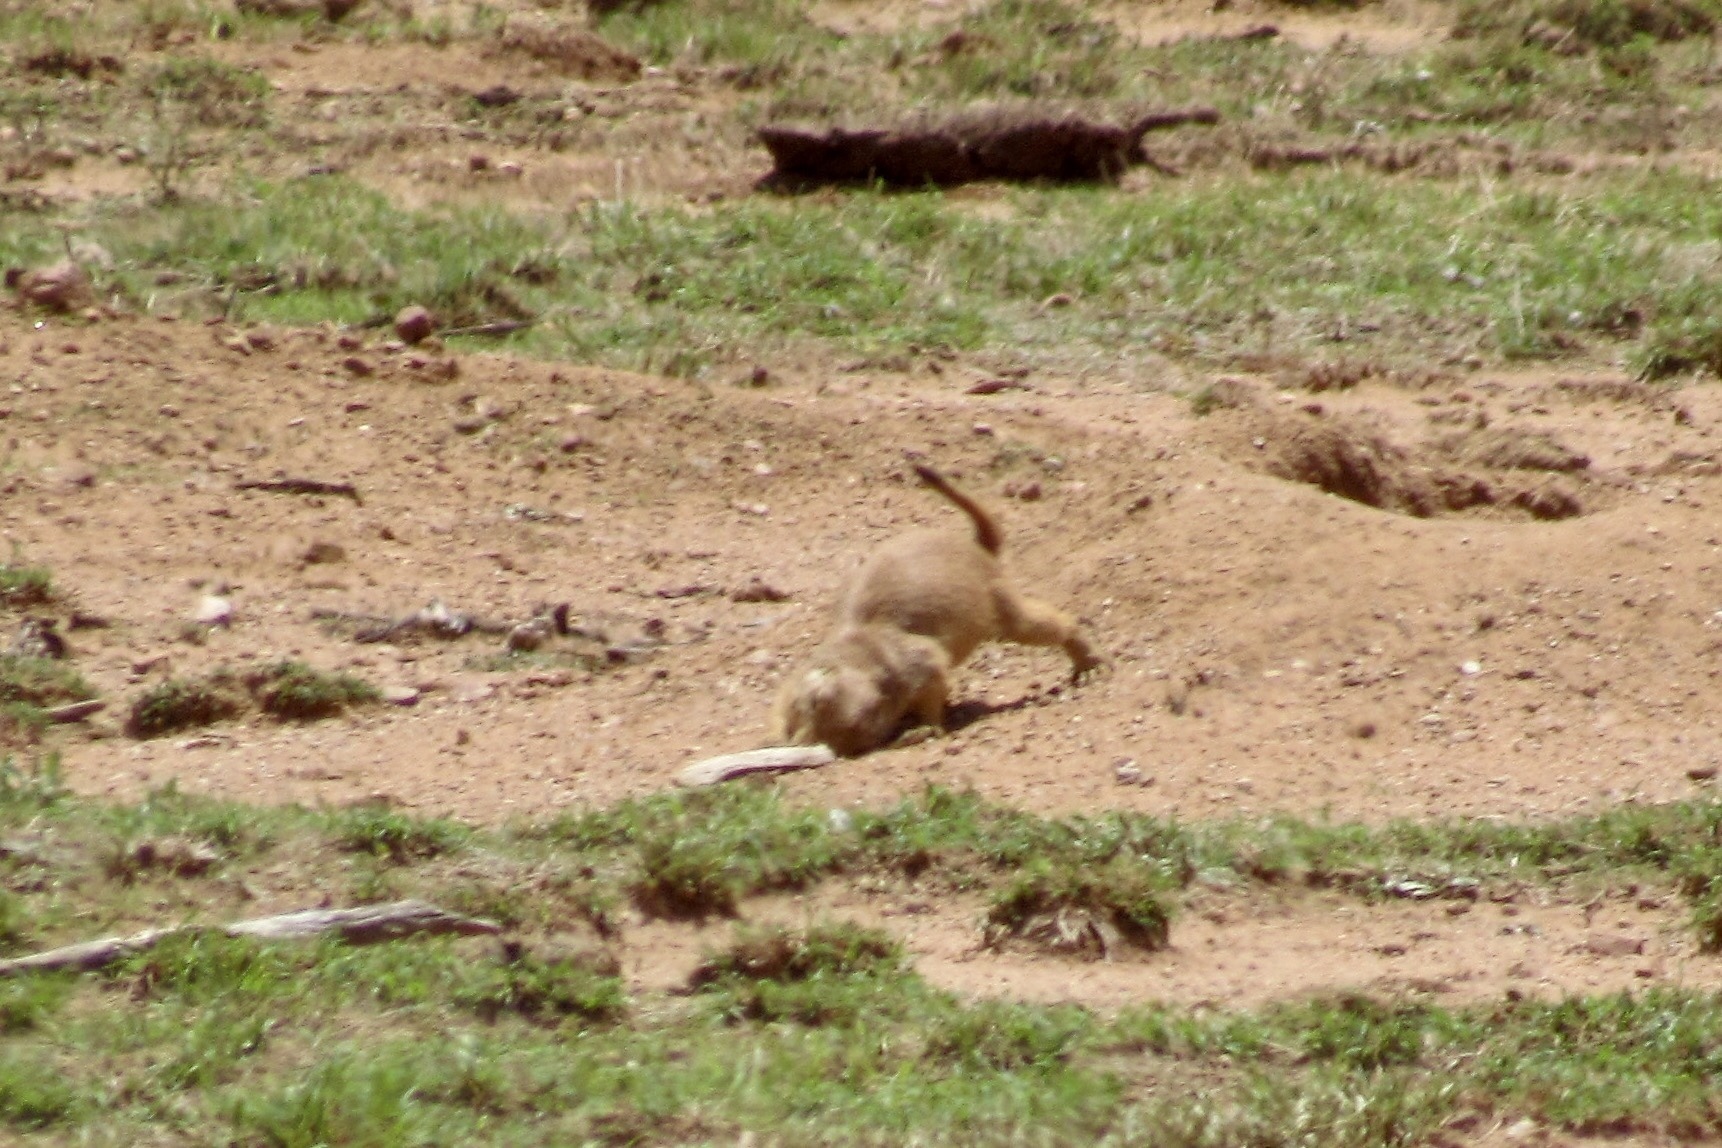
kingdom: Animalia
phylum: Chordata
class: Mammalia
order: Rodentia
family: Sciuridae
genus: Cynomys
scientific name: Cynomys ludovicianus
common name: Black-tailed prairie dog
